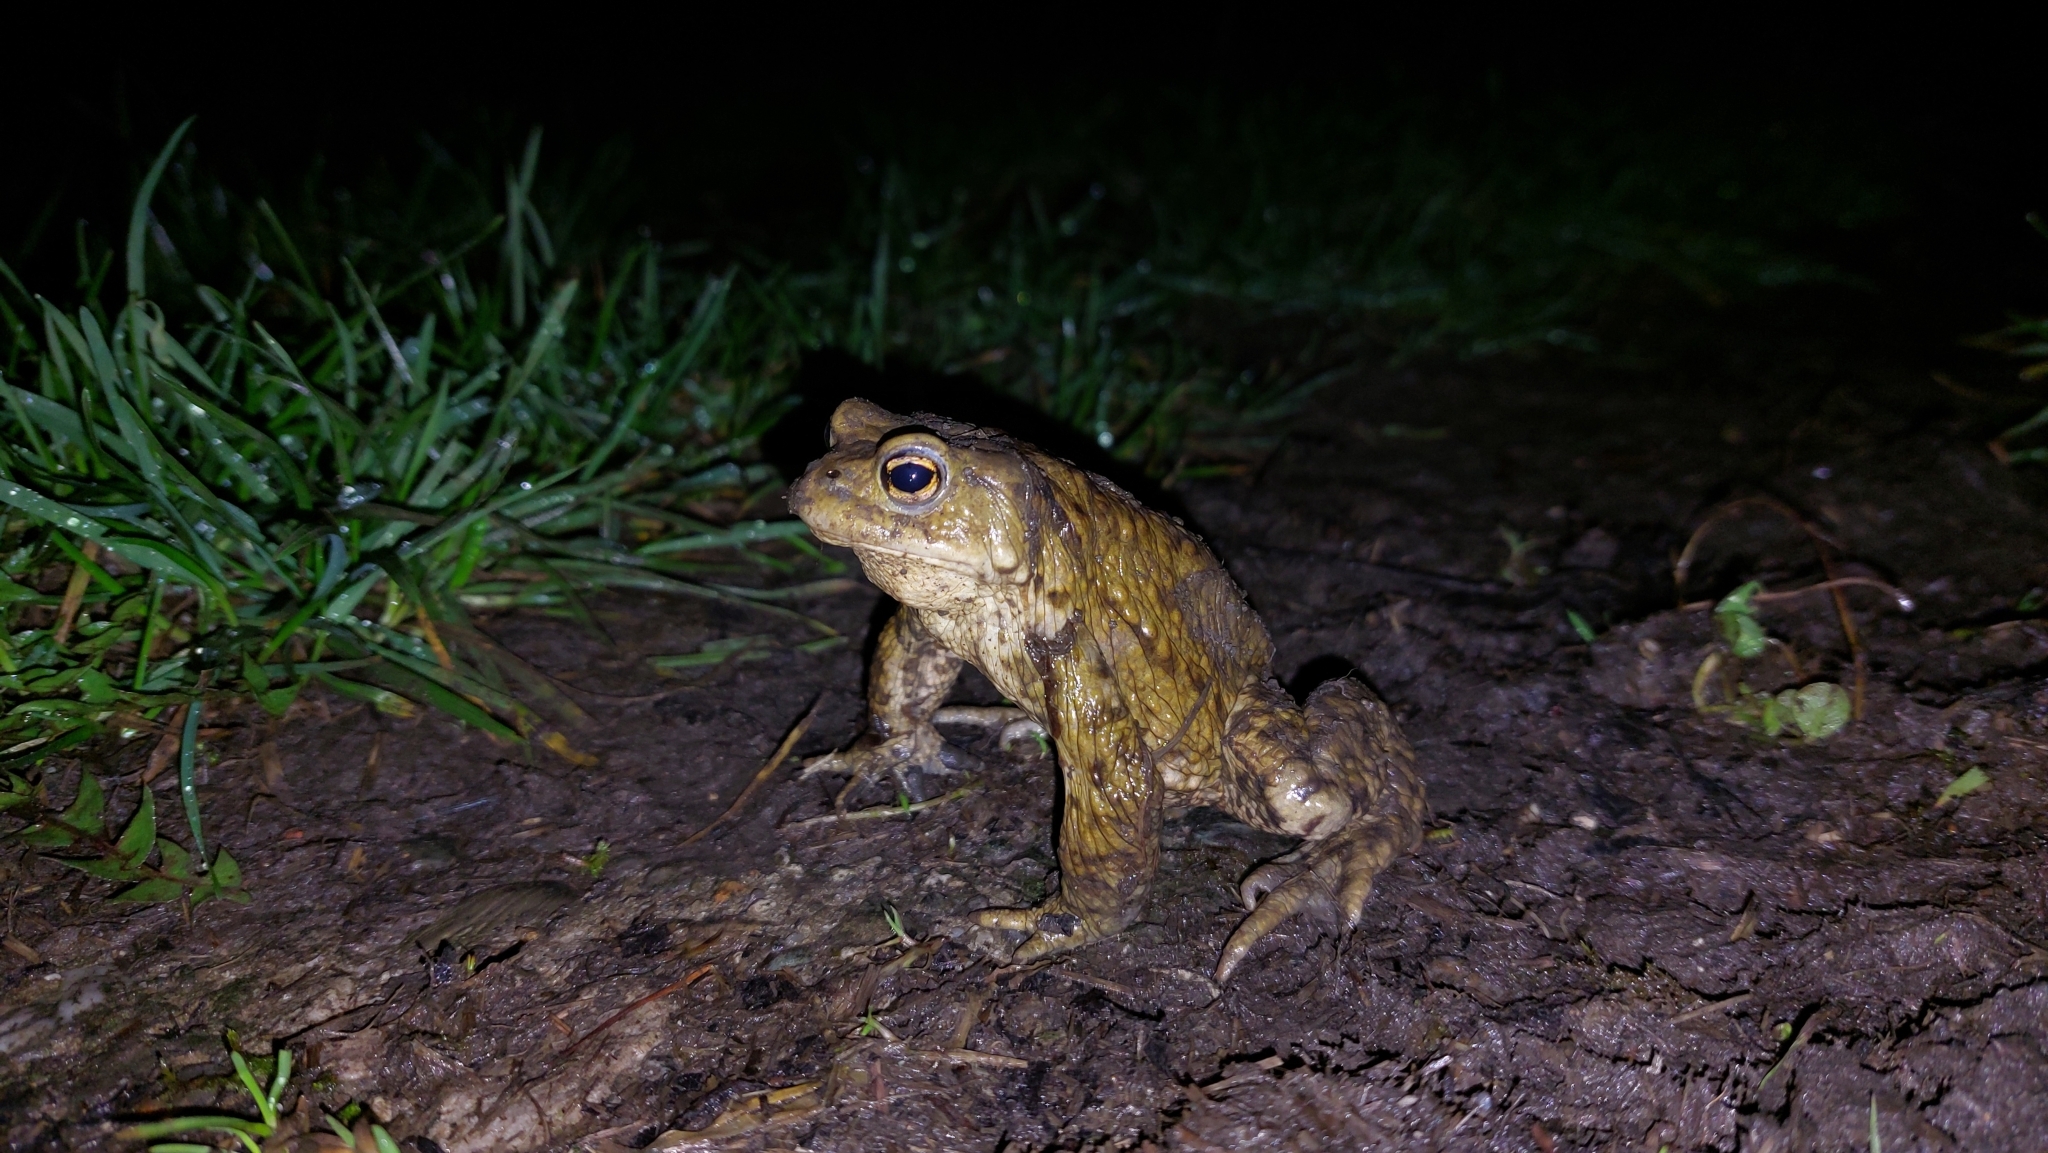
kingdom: Animalia
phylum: Chordata
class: Amphibia
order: Anura
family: Bufonidae
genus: Bufo
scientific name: Bufo bufo
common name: Common toad
